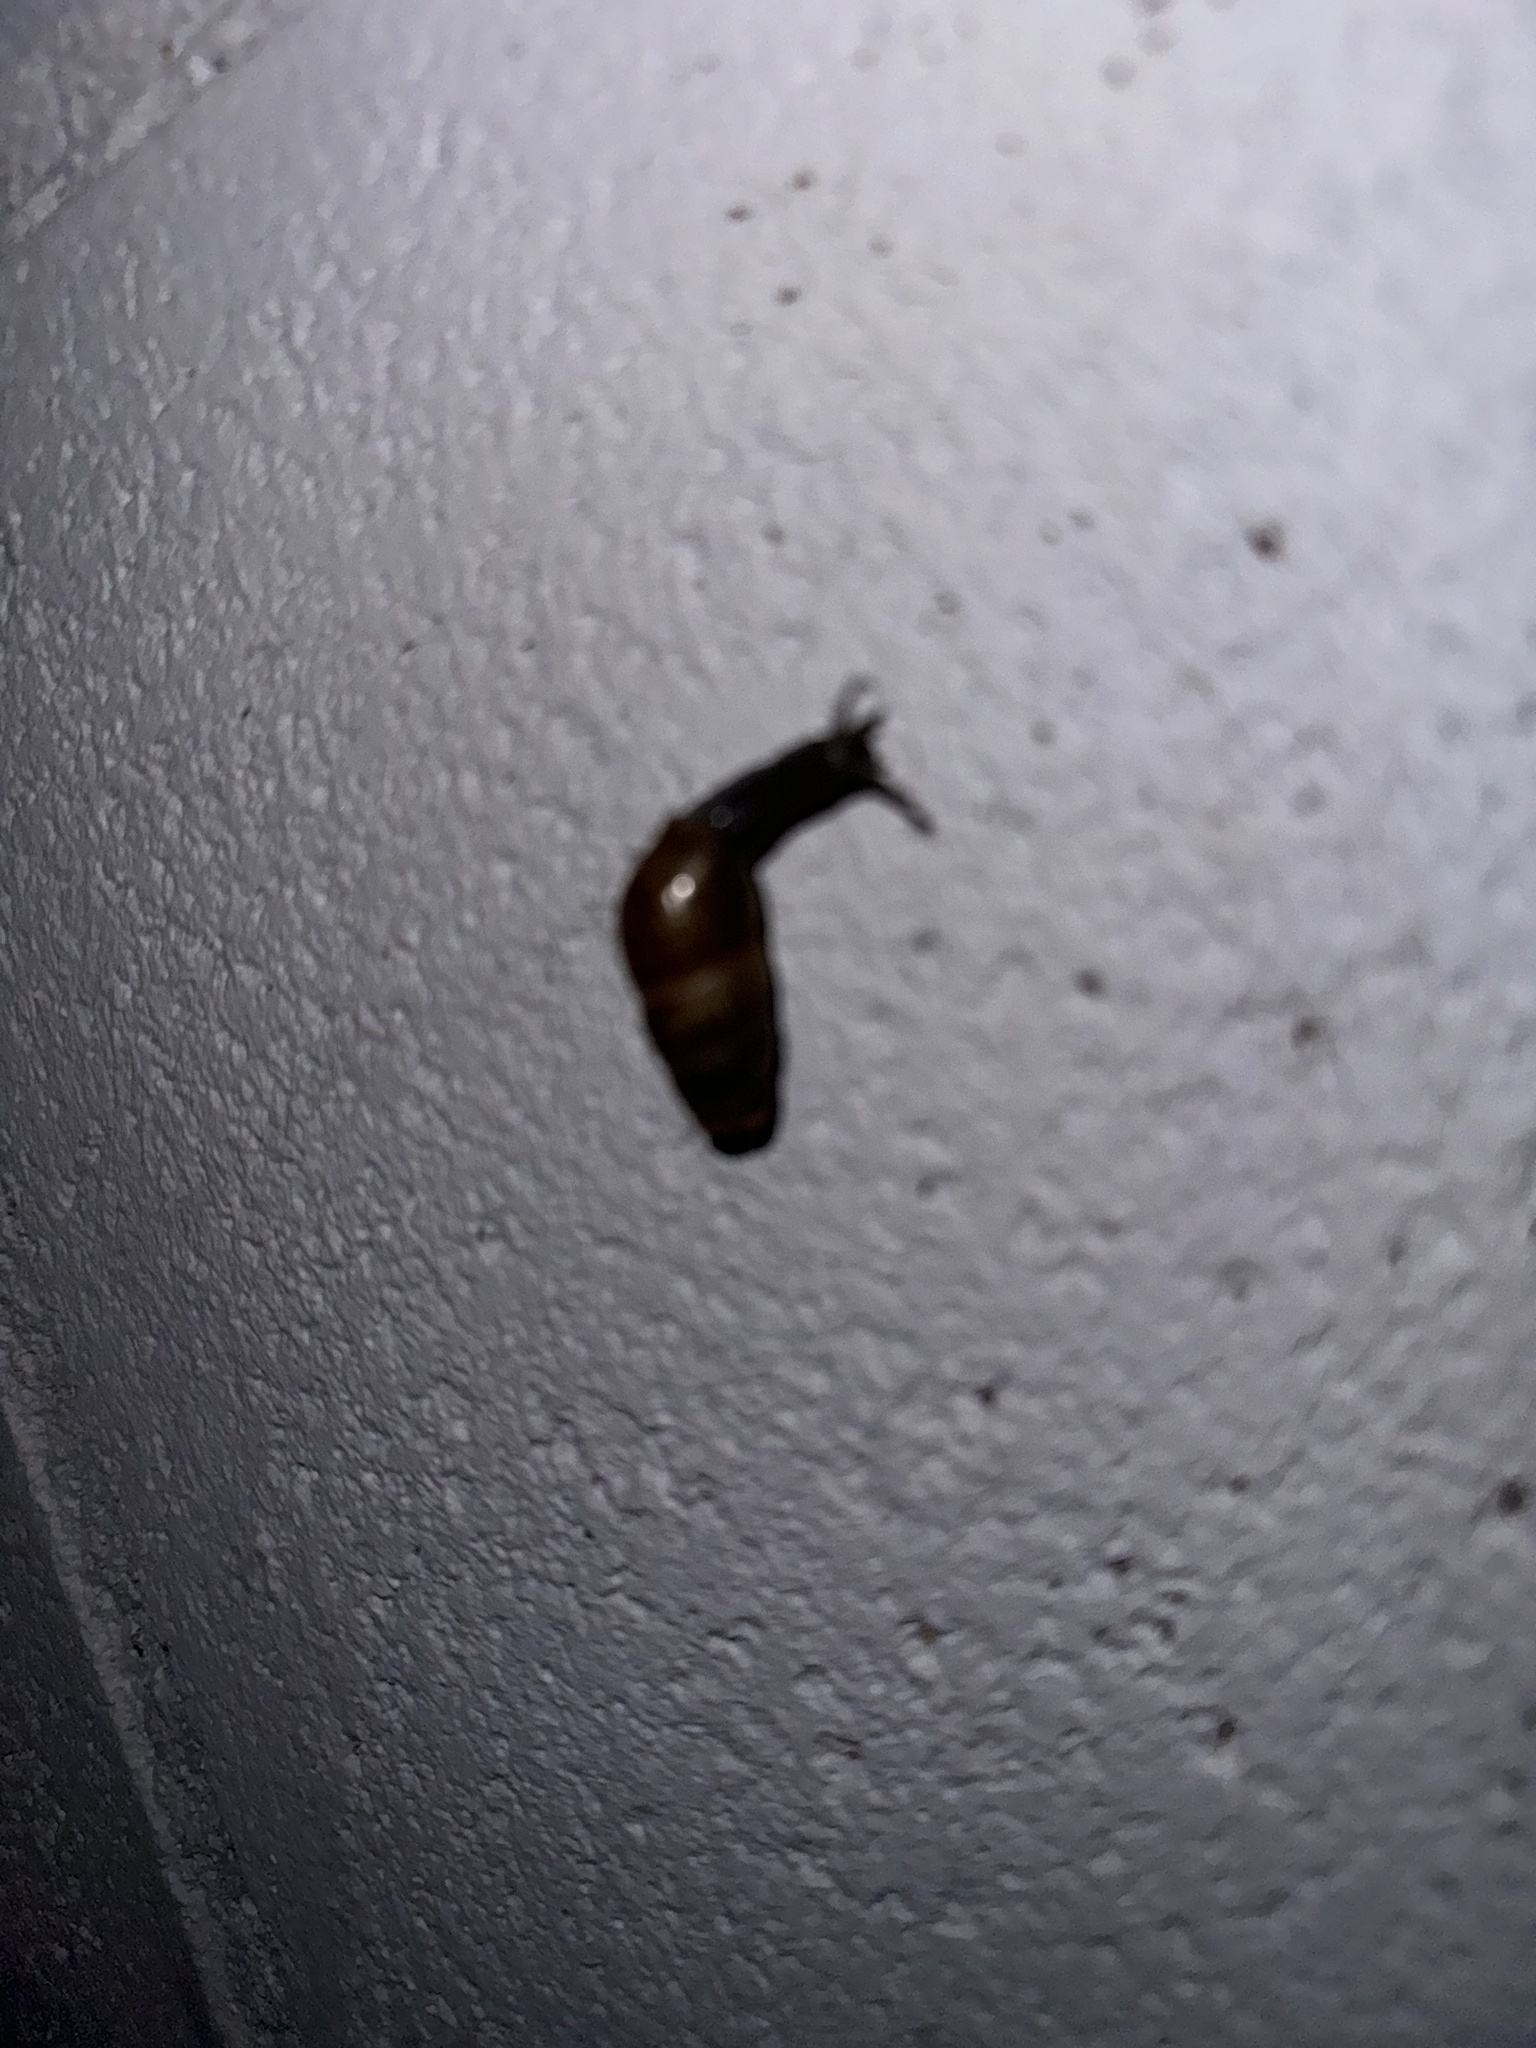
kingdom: Animalia
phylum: Mollusca
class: Gastropoda
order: Stylommatophora
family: Achatinidae
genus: Rumina
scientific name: Rumina decollata
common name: Decollate snail
